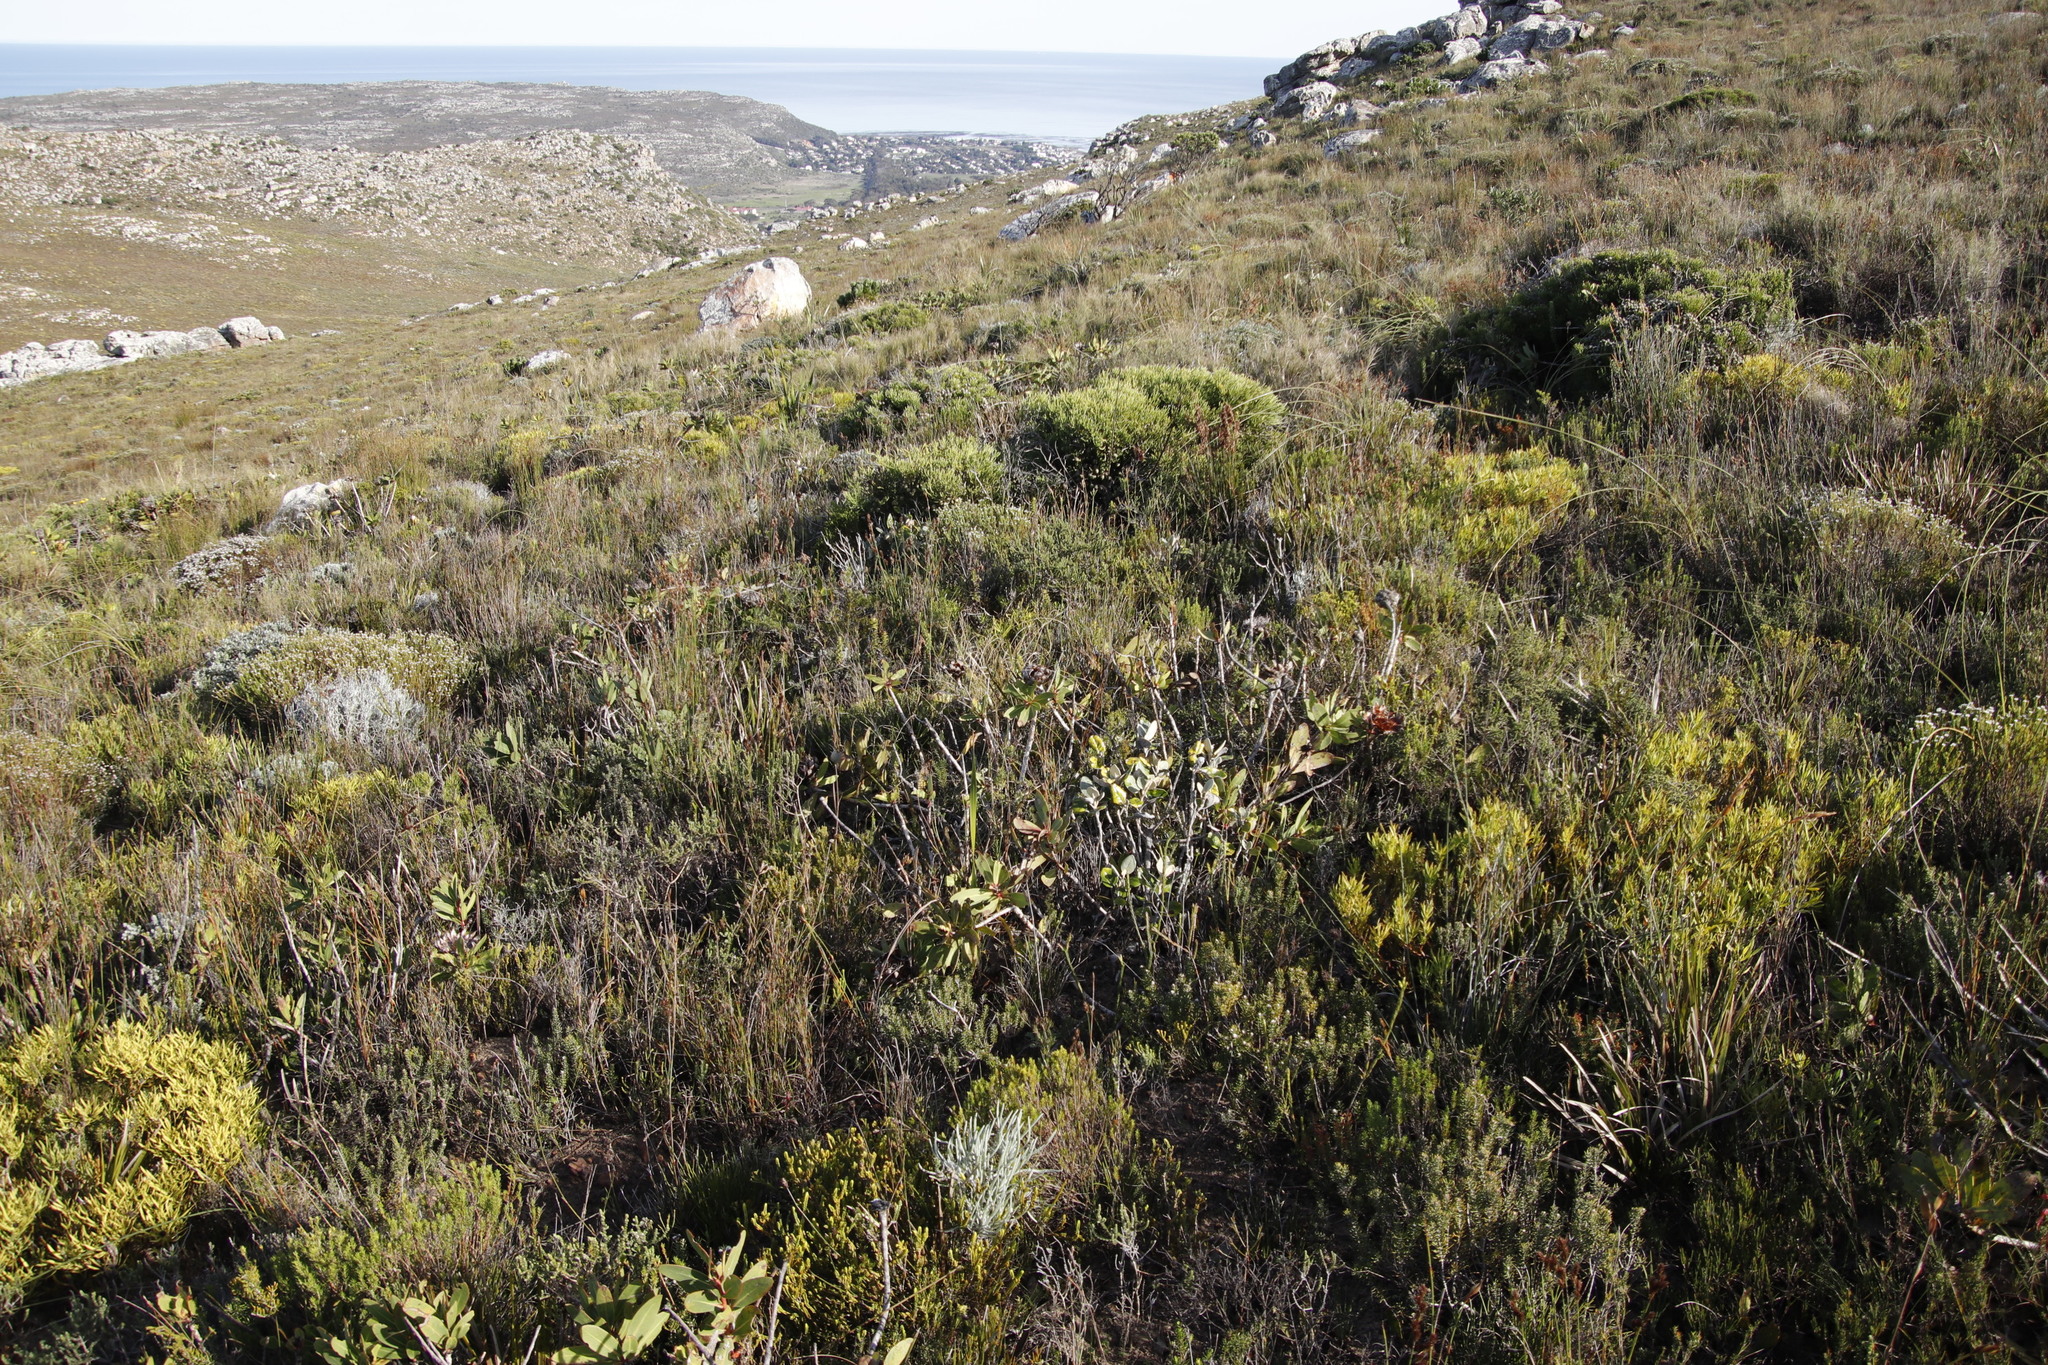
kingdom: Plantae
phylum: Tracheophyta
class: Magnoliopsida
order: Proteales
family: Proteaceae
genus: Protea
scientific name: Protea nitida
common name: Tree protea
